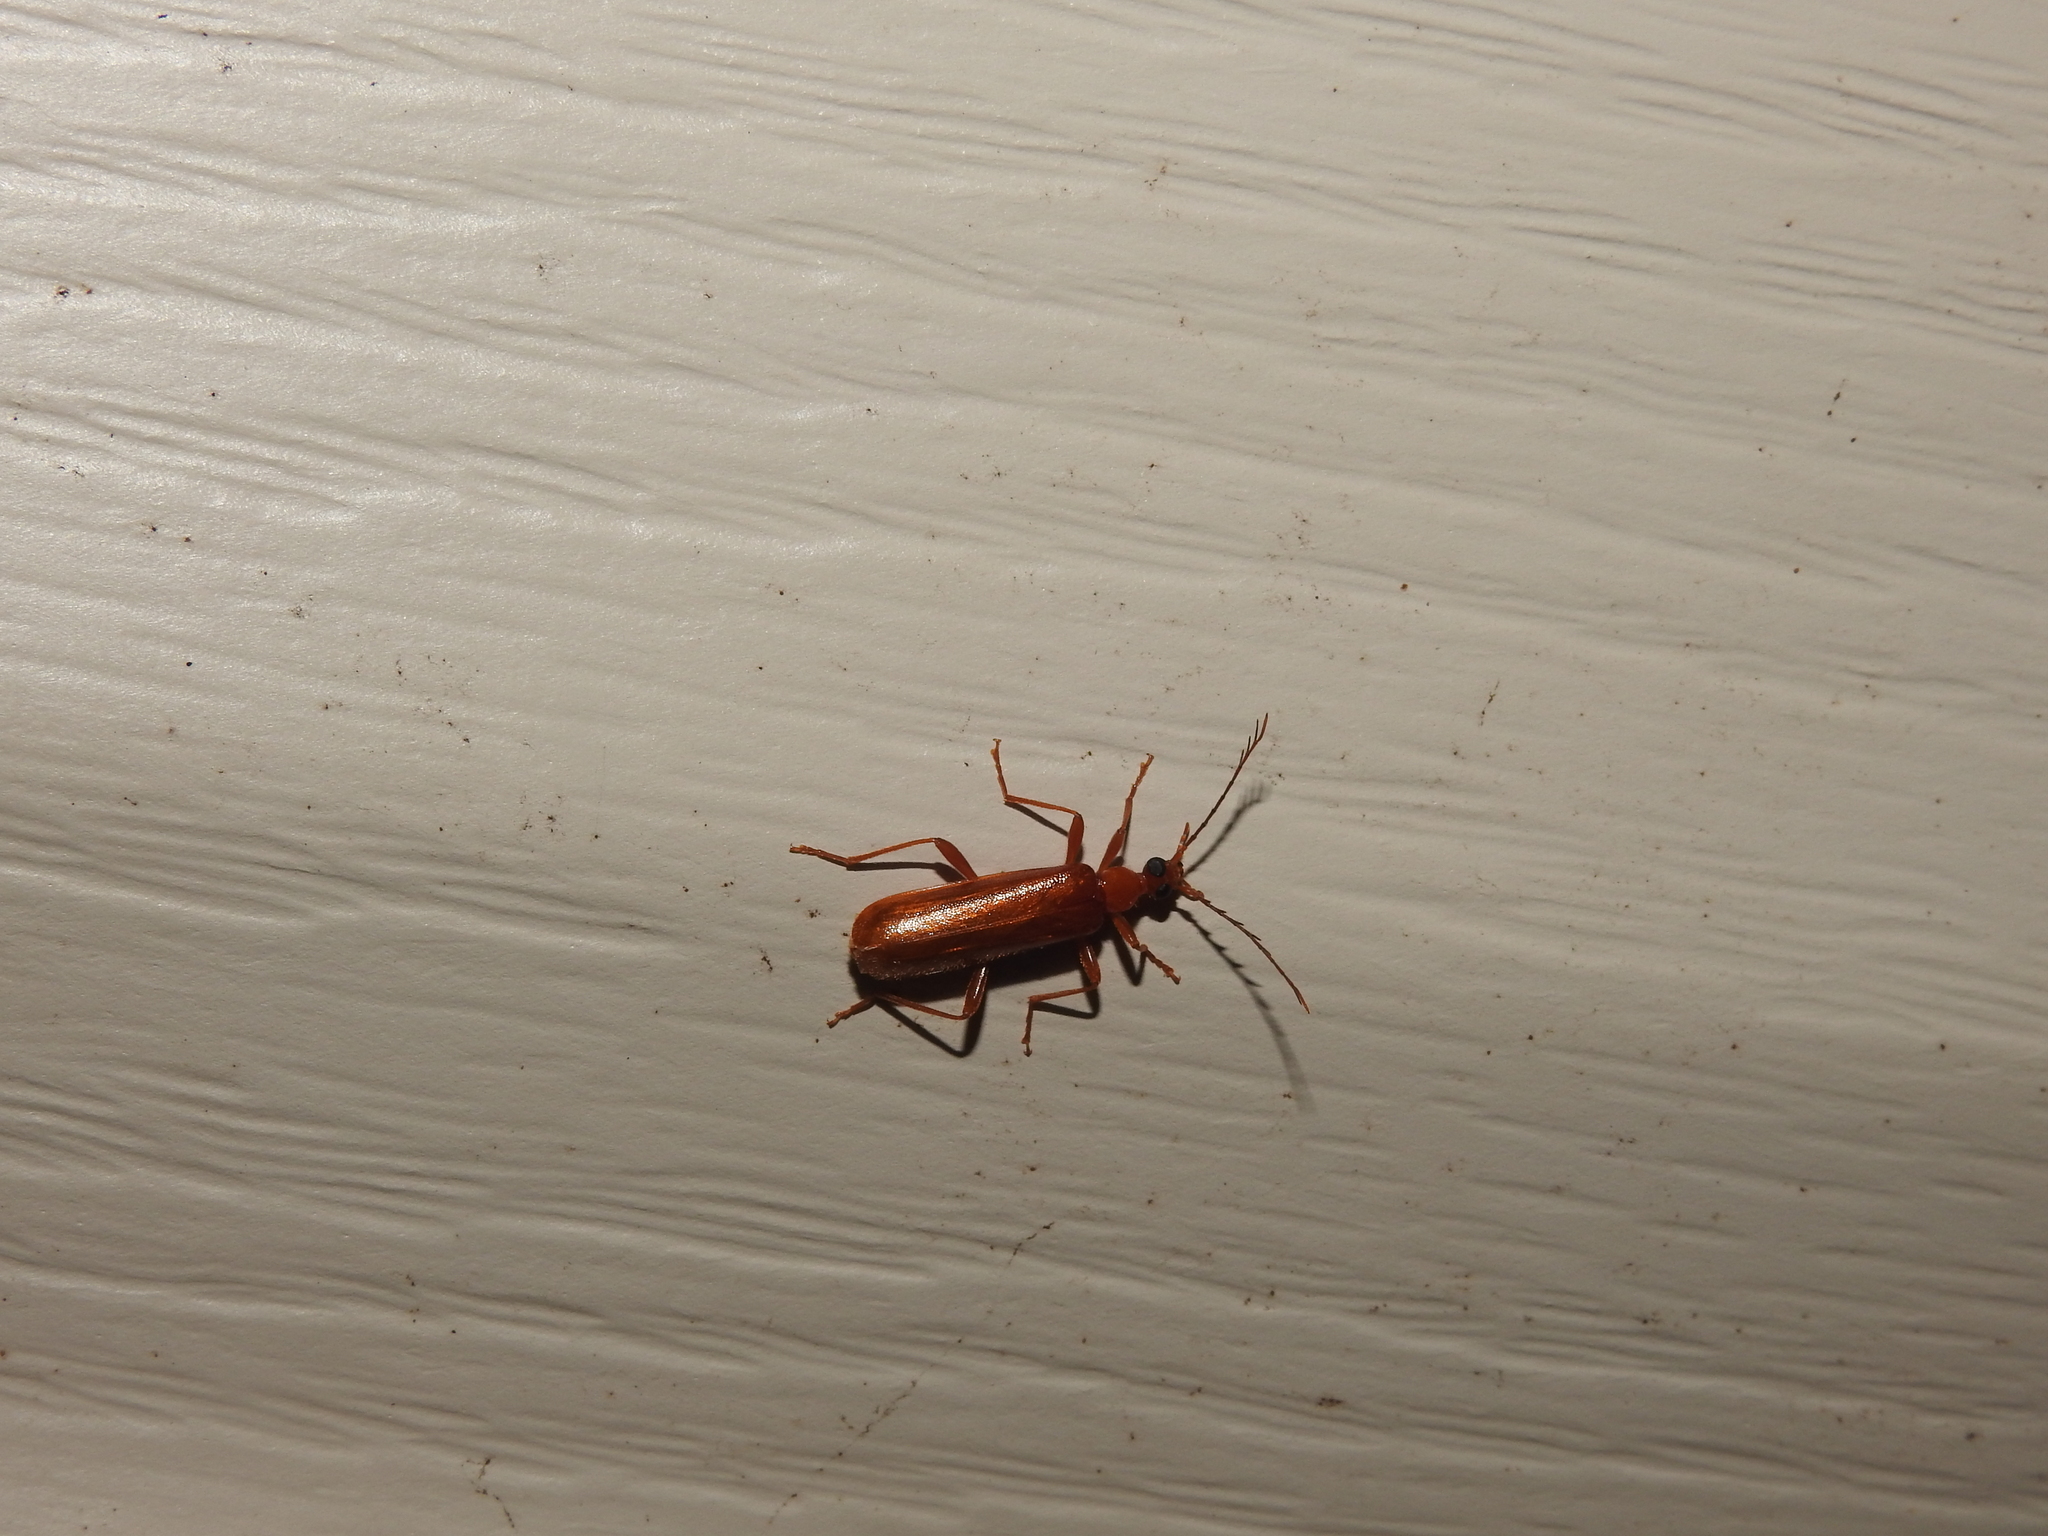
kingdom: Animalia
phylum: Arthropoda
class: Insecta
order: Coleoptera
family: Pyrochroidae
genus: Dendroides
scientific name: Dendroides concolor
